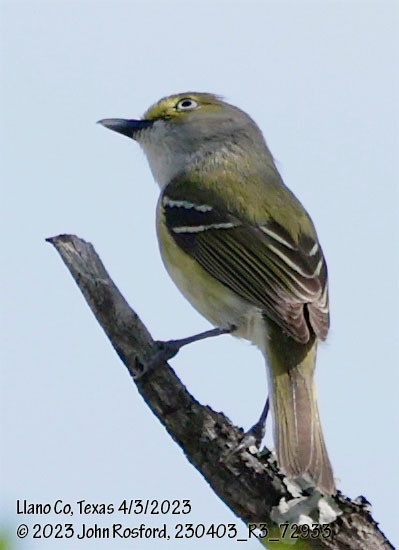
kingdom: Animalia
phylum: Chordata
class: Aves
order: Passeriformes
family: Vireonidae
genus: Vireo
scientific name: Vireo griseus
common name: White-eyed vireo
